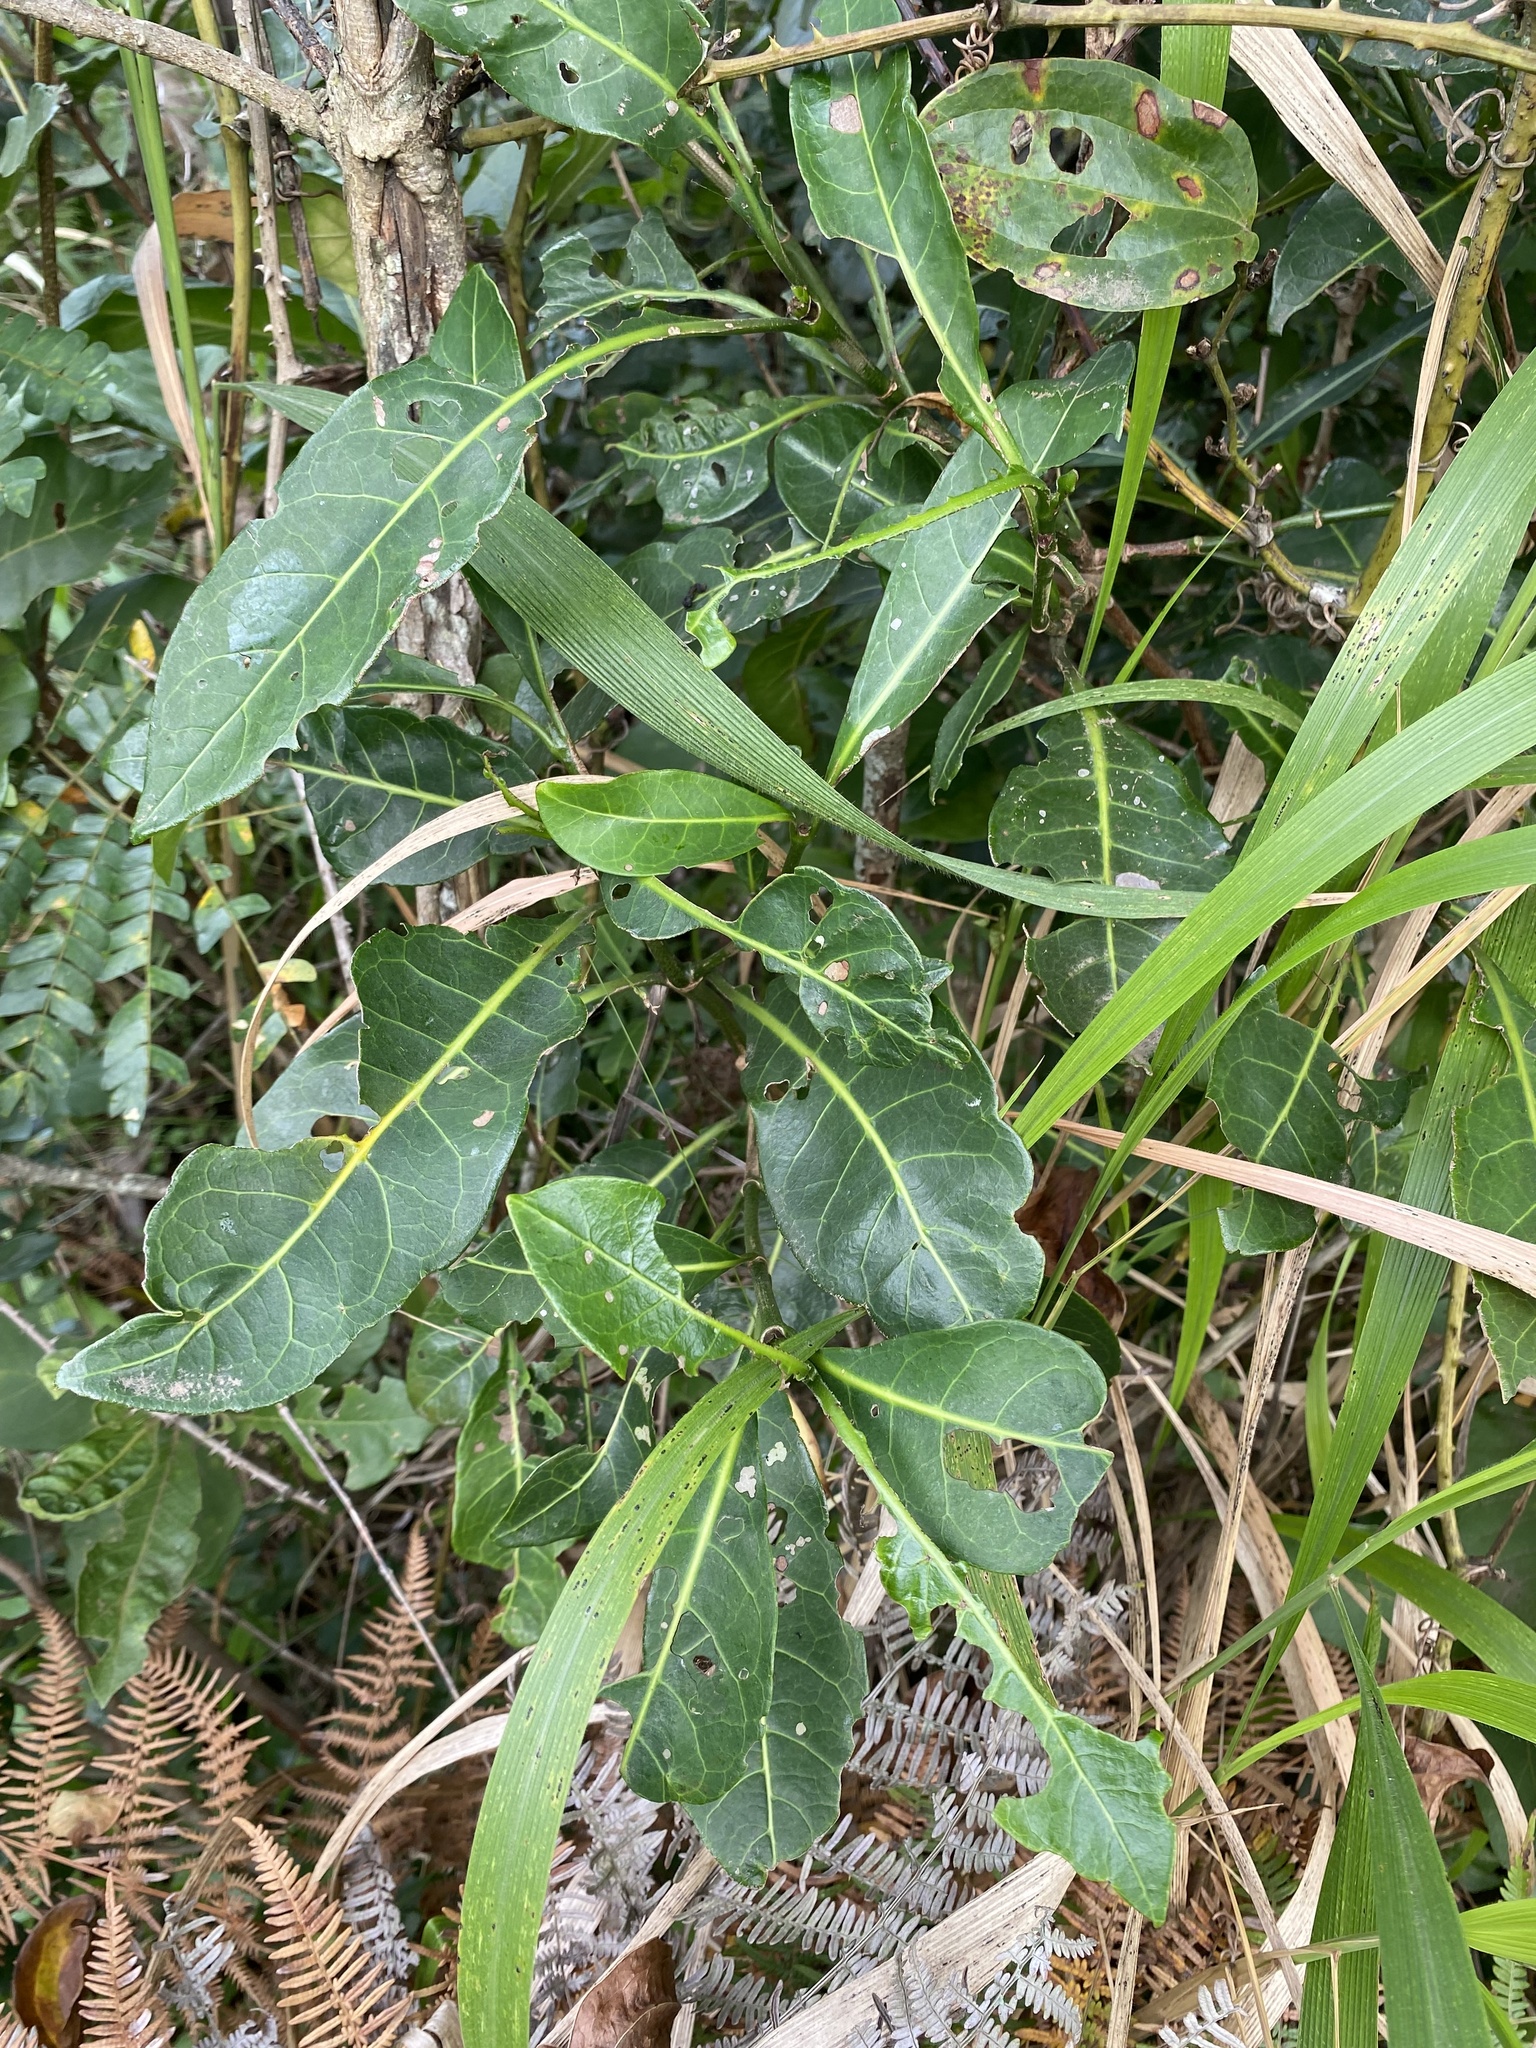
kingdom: Plantae
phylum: Tracheophyta
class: Magnoliopsida
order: Gentianales
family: Rubiaceae
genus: Psychotria
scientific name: Psychotria capensis
